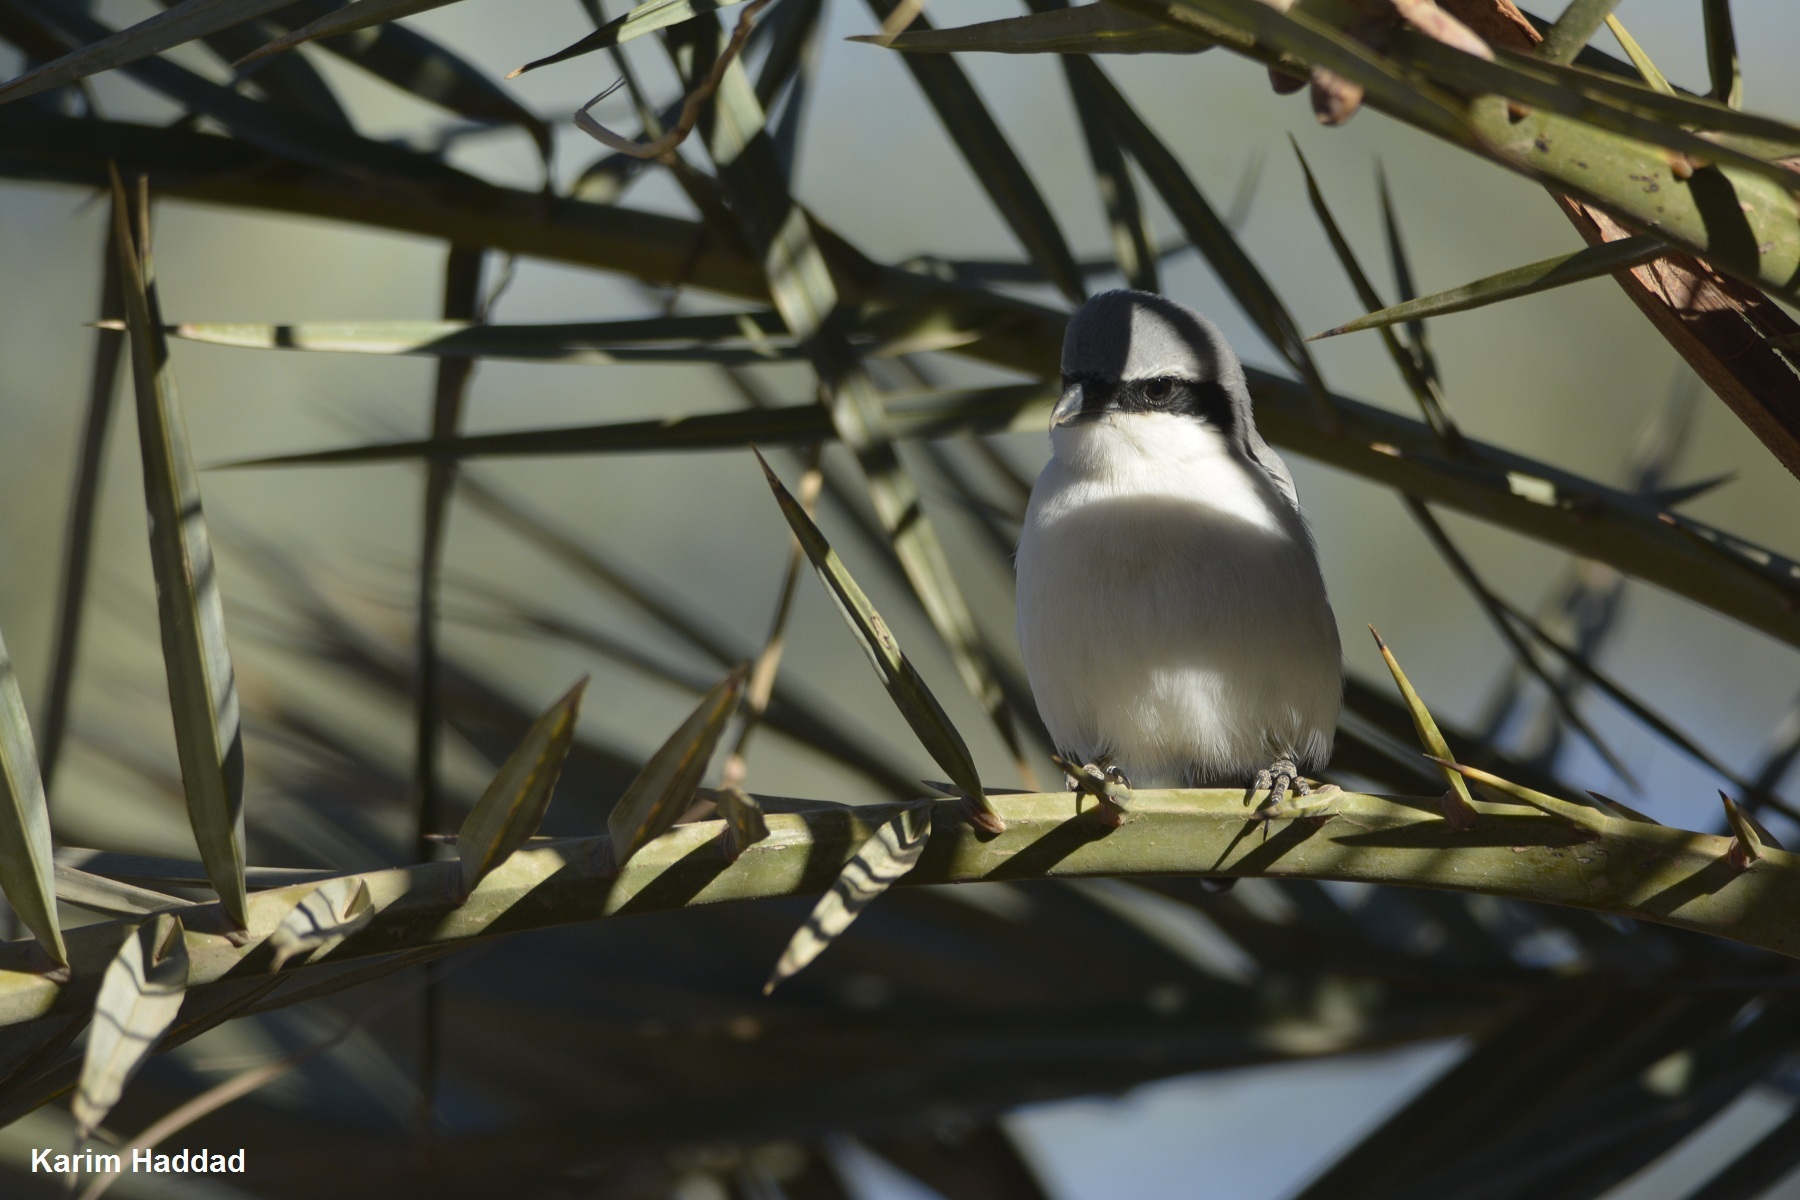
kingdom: Animalia
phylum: Chordata
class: Aves
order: Passeriformes
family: Laniidae
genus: Lanius
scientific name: Lanius excubitor
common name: Great grey shrike
